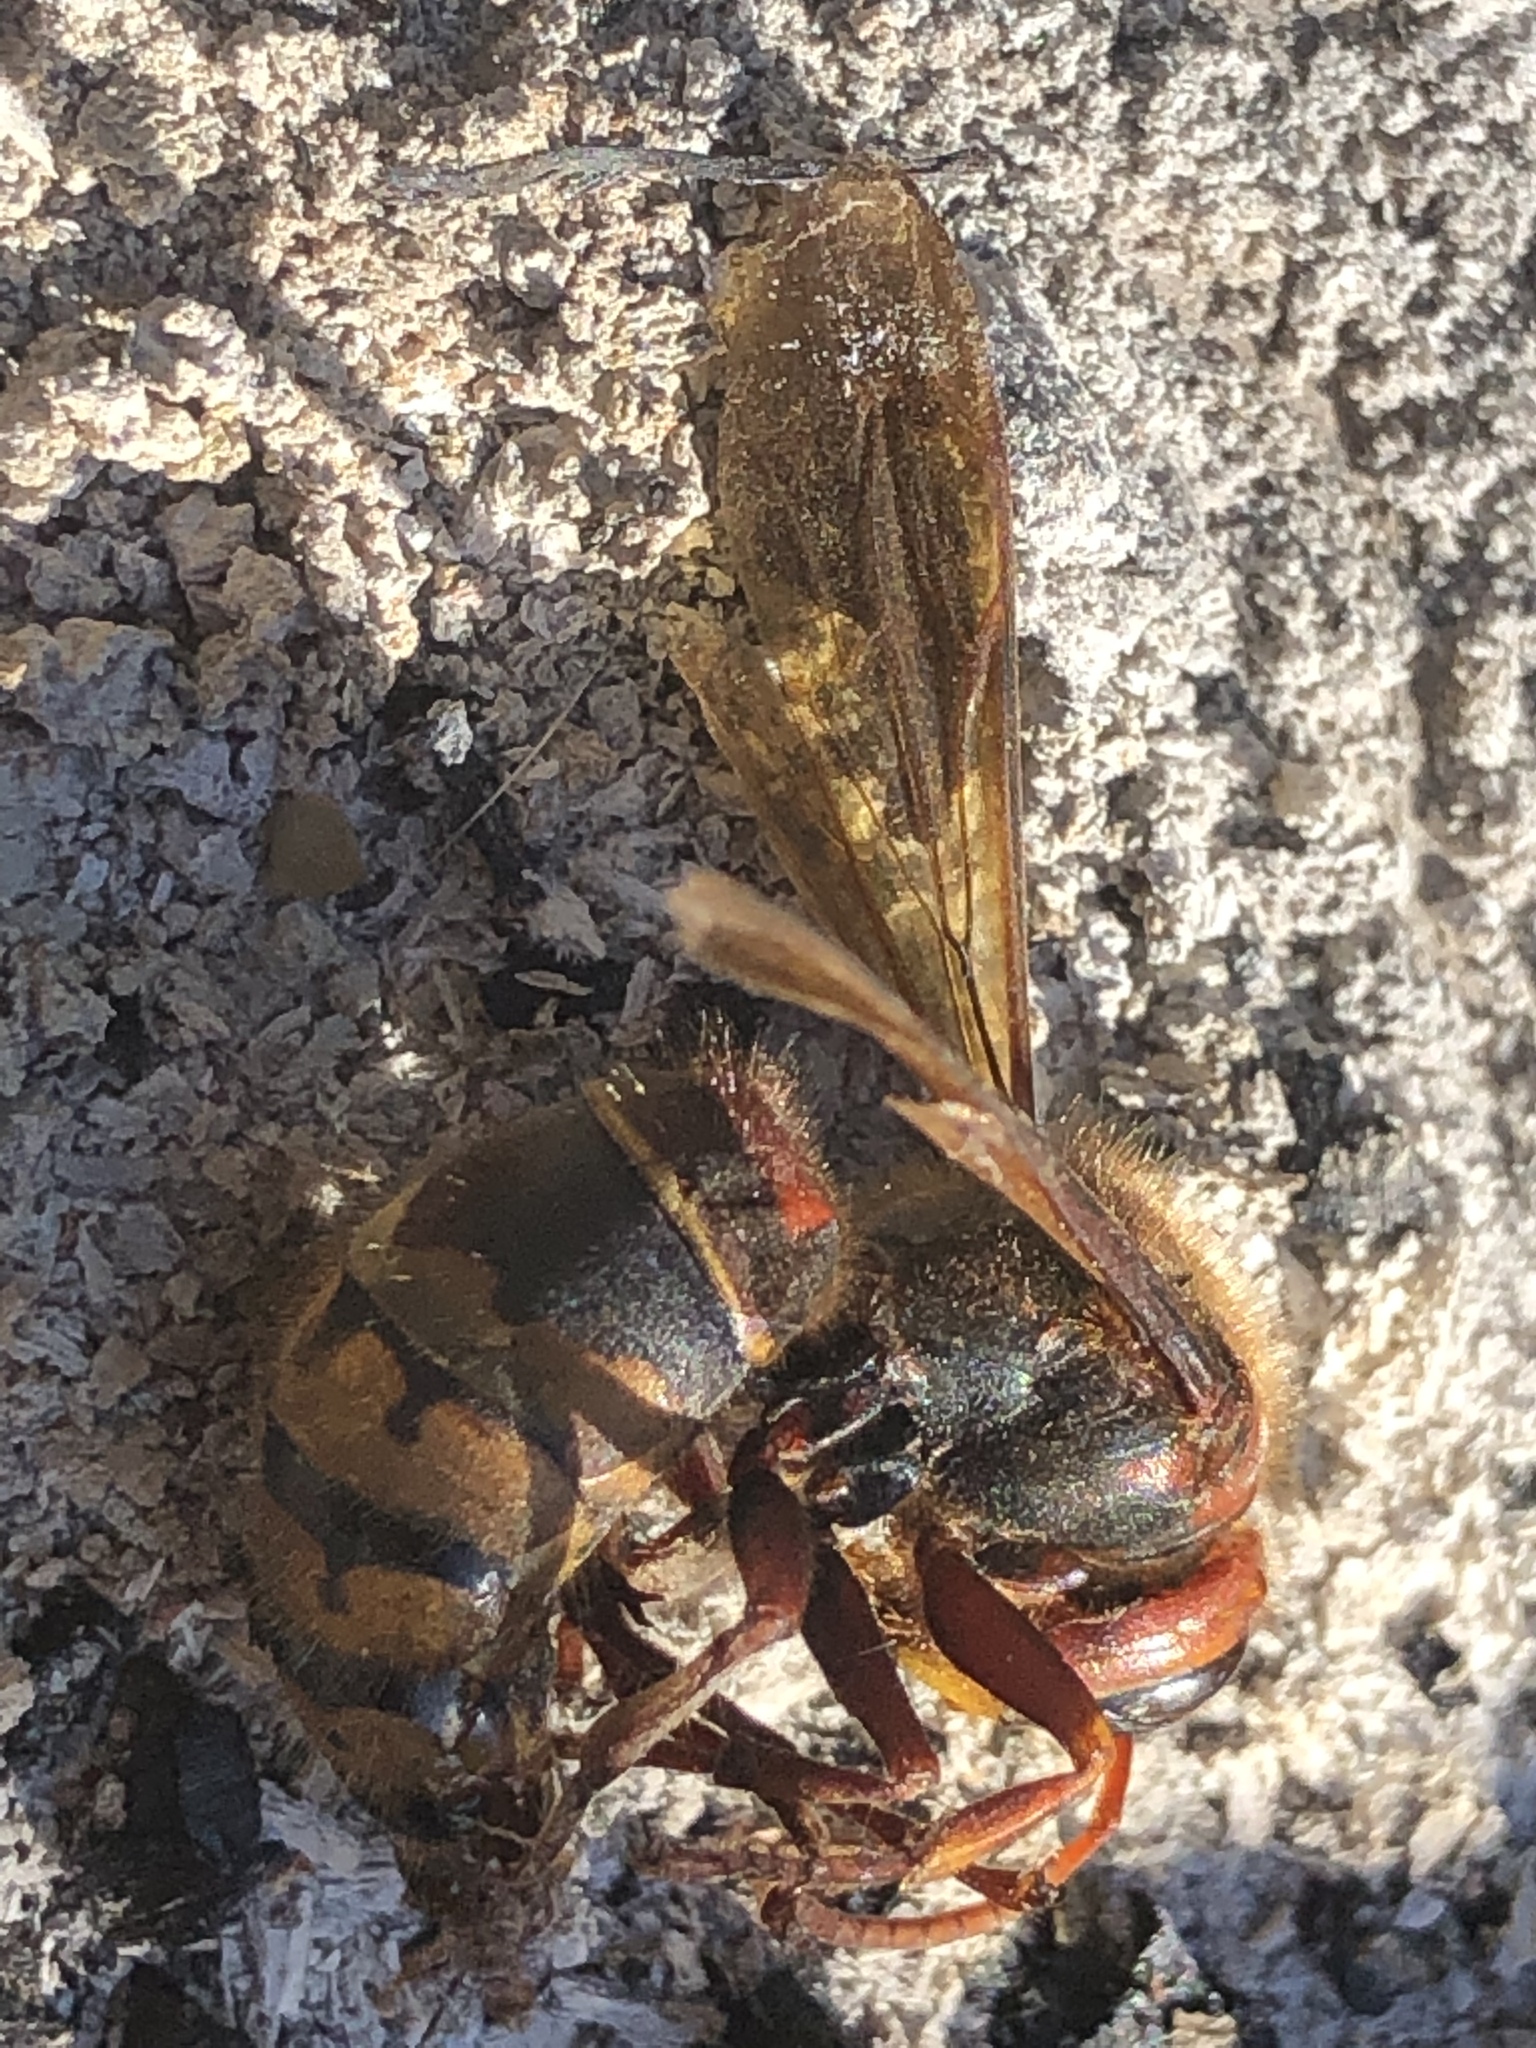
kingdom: Animalia
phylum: Arthropoda
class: Insecta
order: Hymenoptera
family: Vespidae
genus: Vespa
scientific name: Vespa crabro
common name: Hornet
